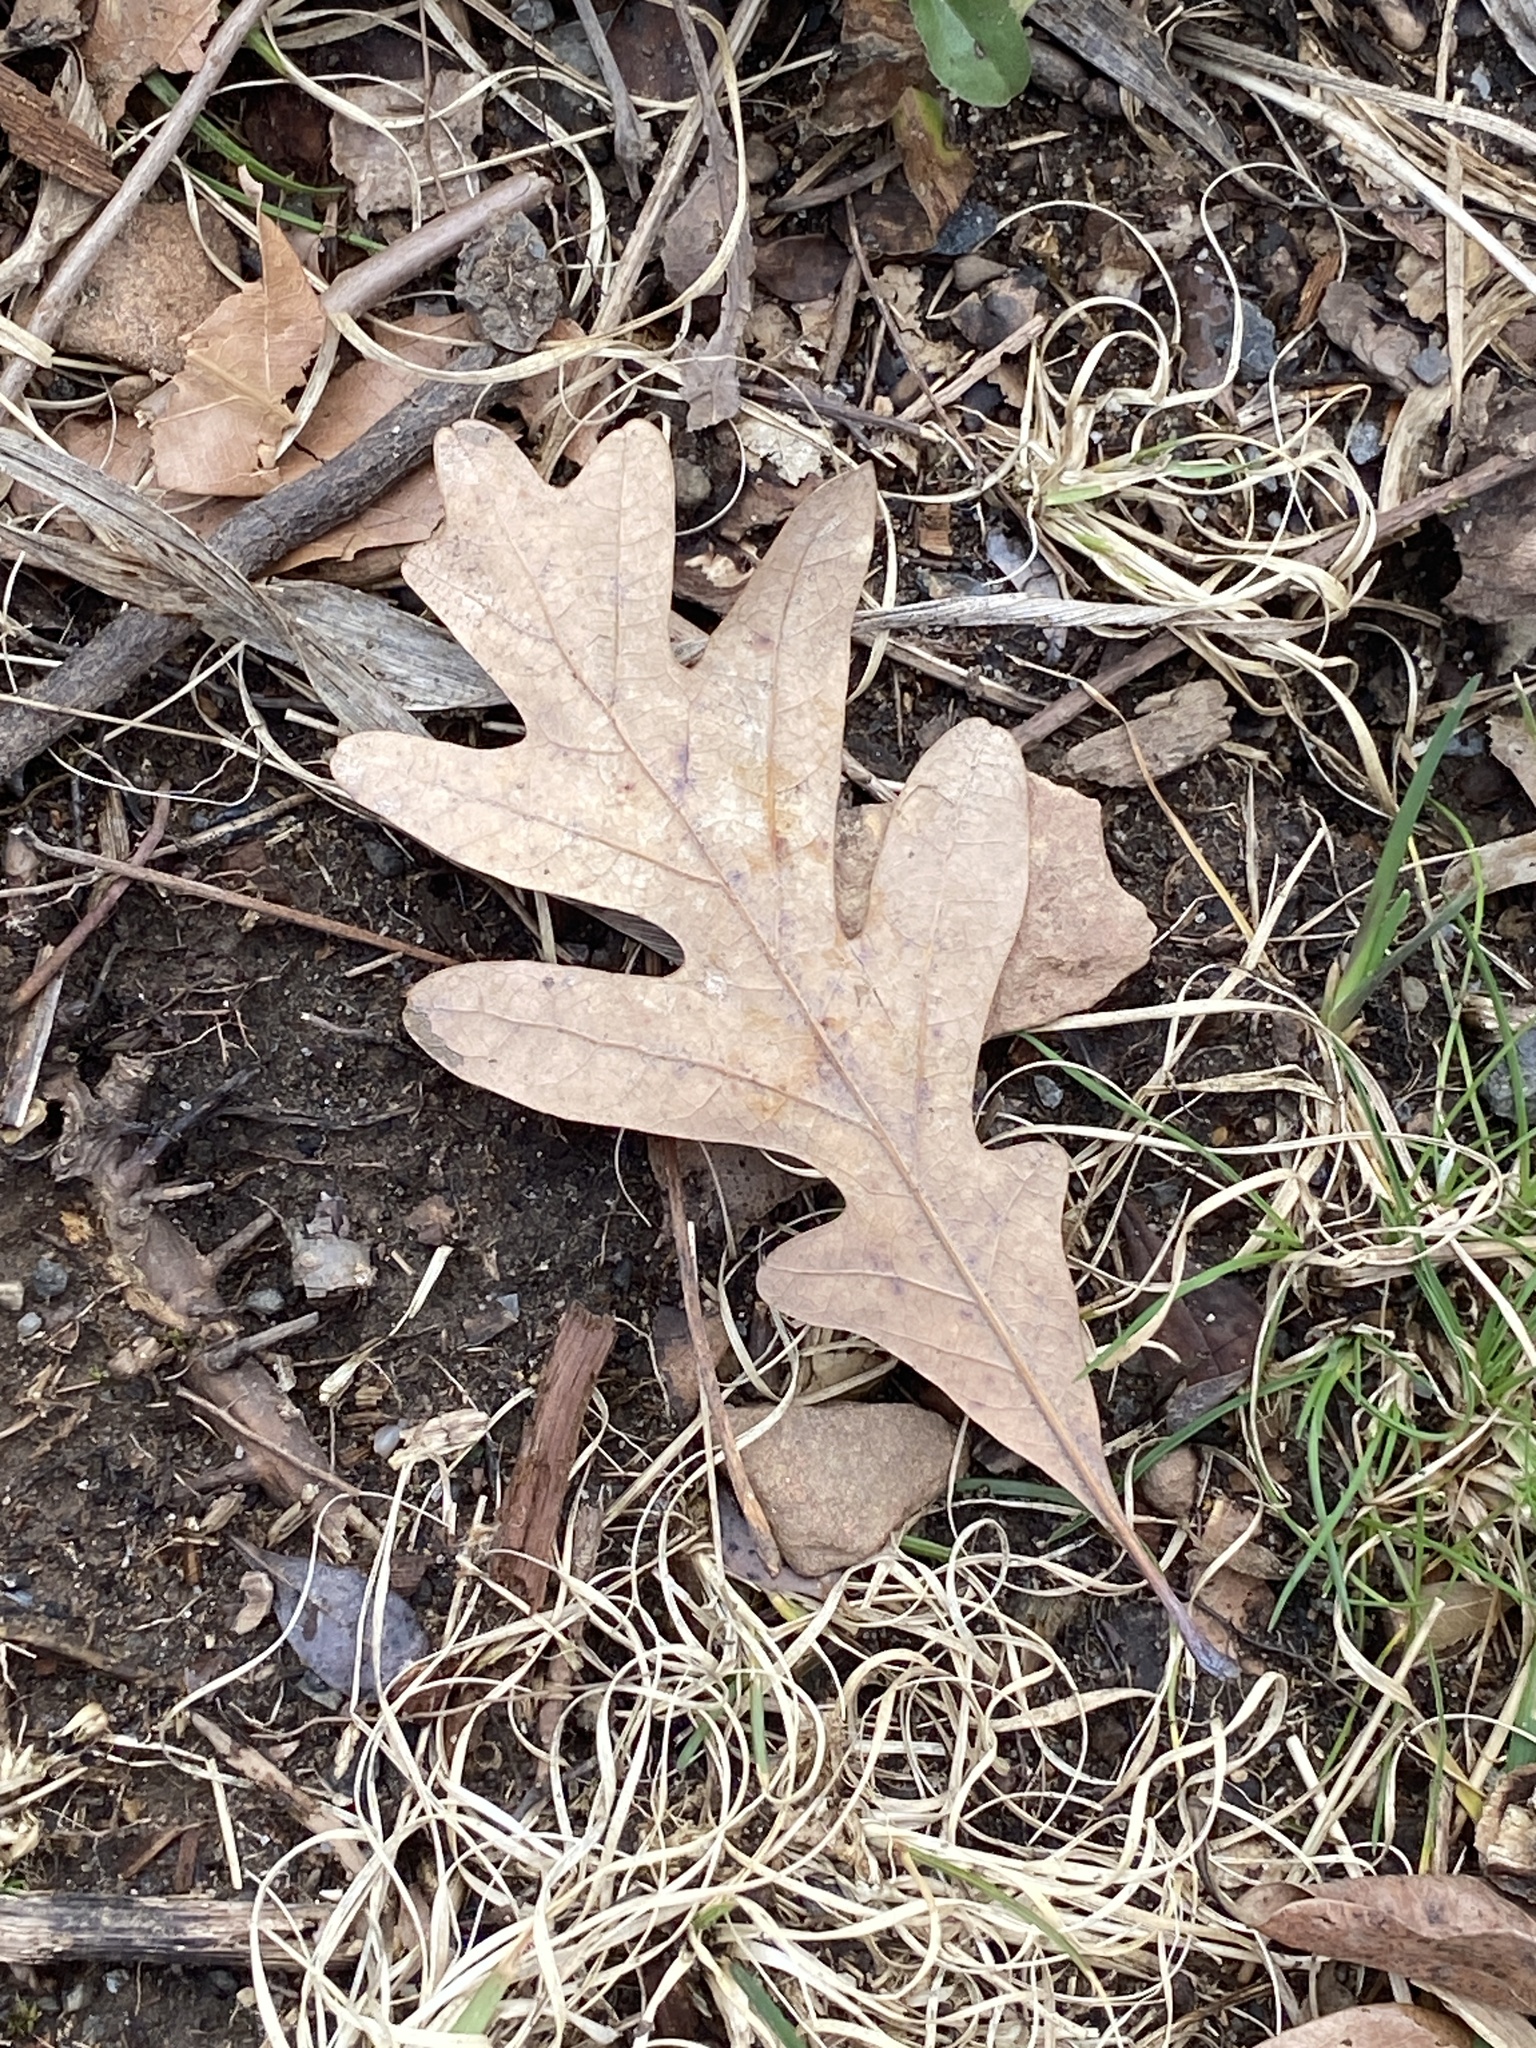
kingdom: Plantae
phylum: Tracheophyta
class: Magnoliopsida
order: Fagales
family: Fagaceae
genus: Quercus
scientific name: Quercus alba
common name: White oak
